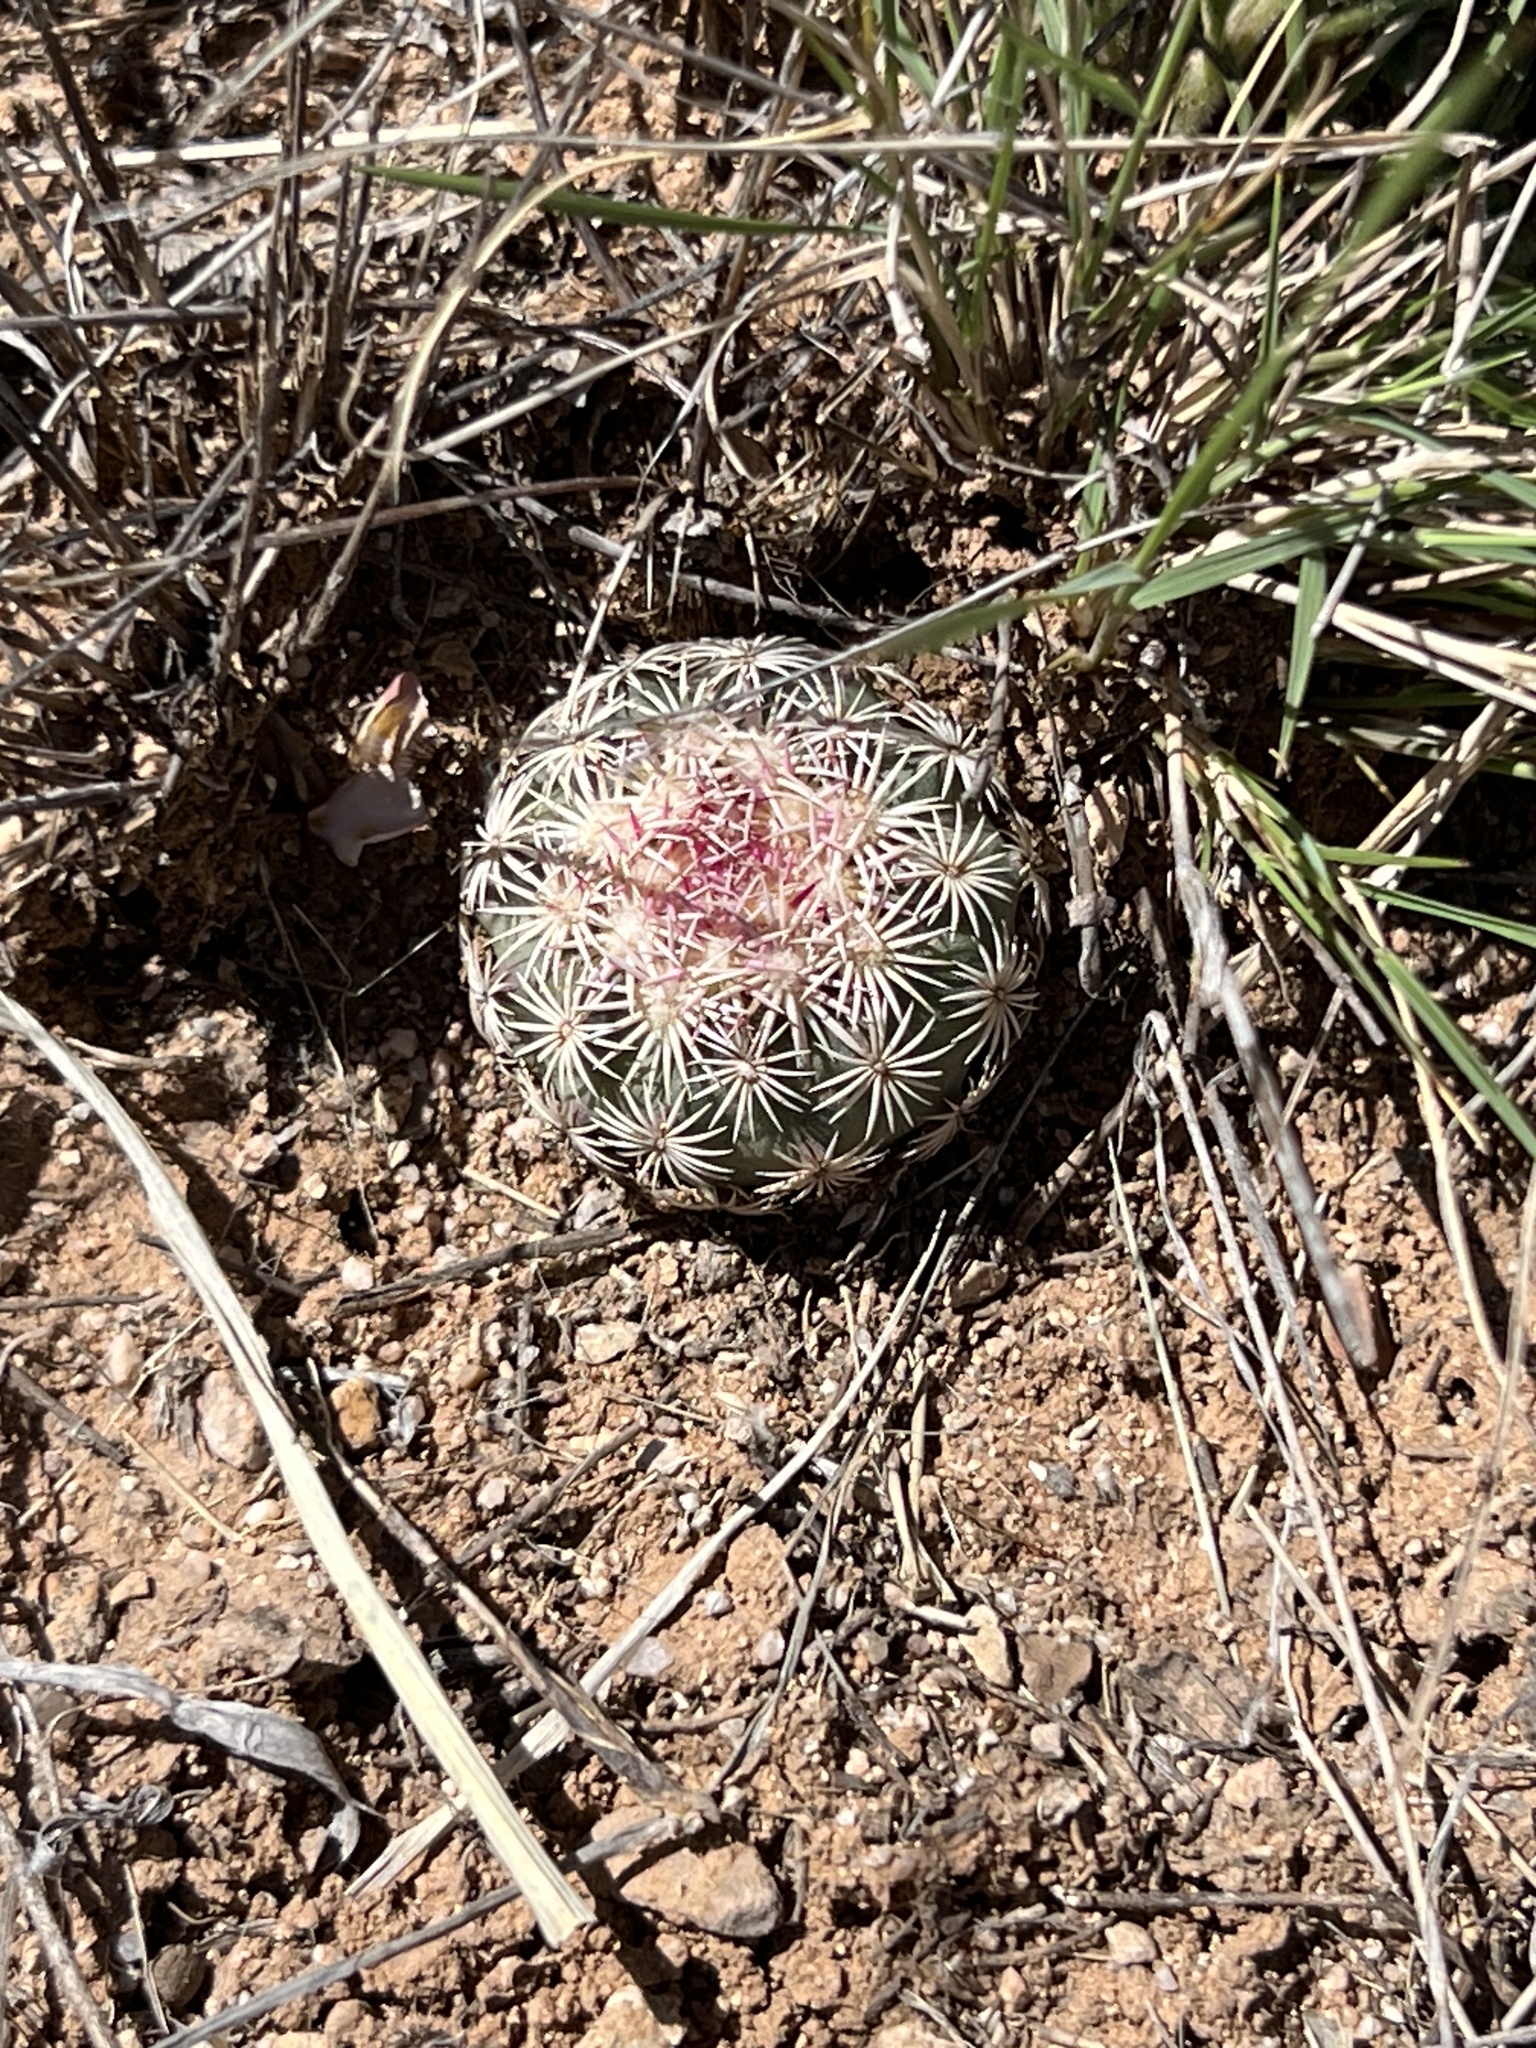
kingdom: Plantae
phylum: Tracheophyta
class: Magnoliopsida
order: Caryophyllales
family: Cactaceae
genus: Sclerocactus
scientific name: Sclerocactus johnsonii
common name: Eight-spine fishhook cactus
